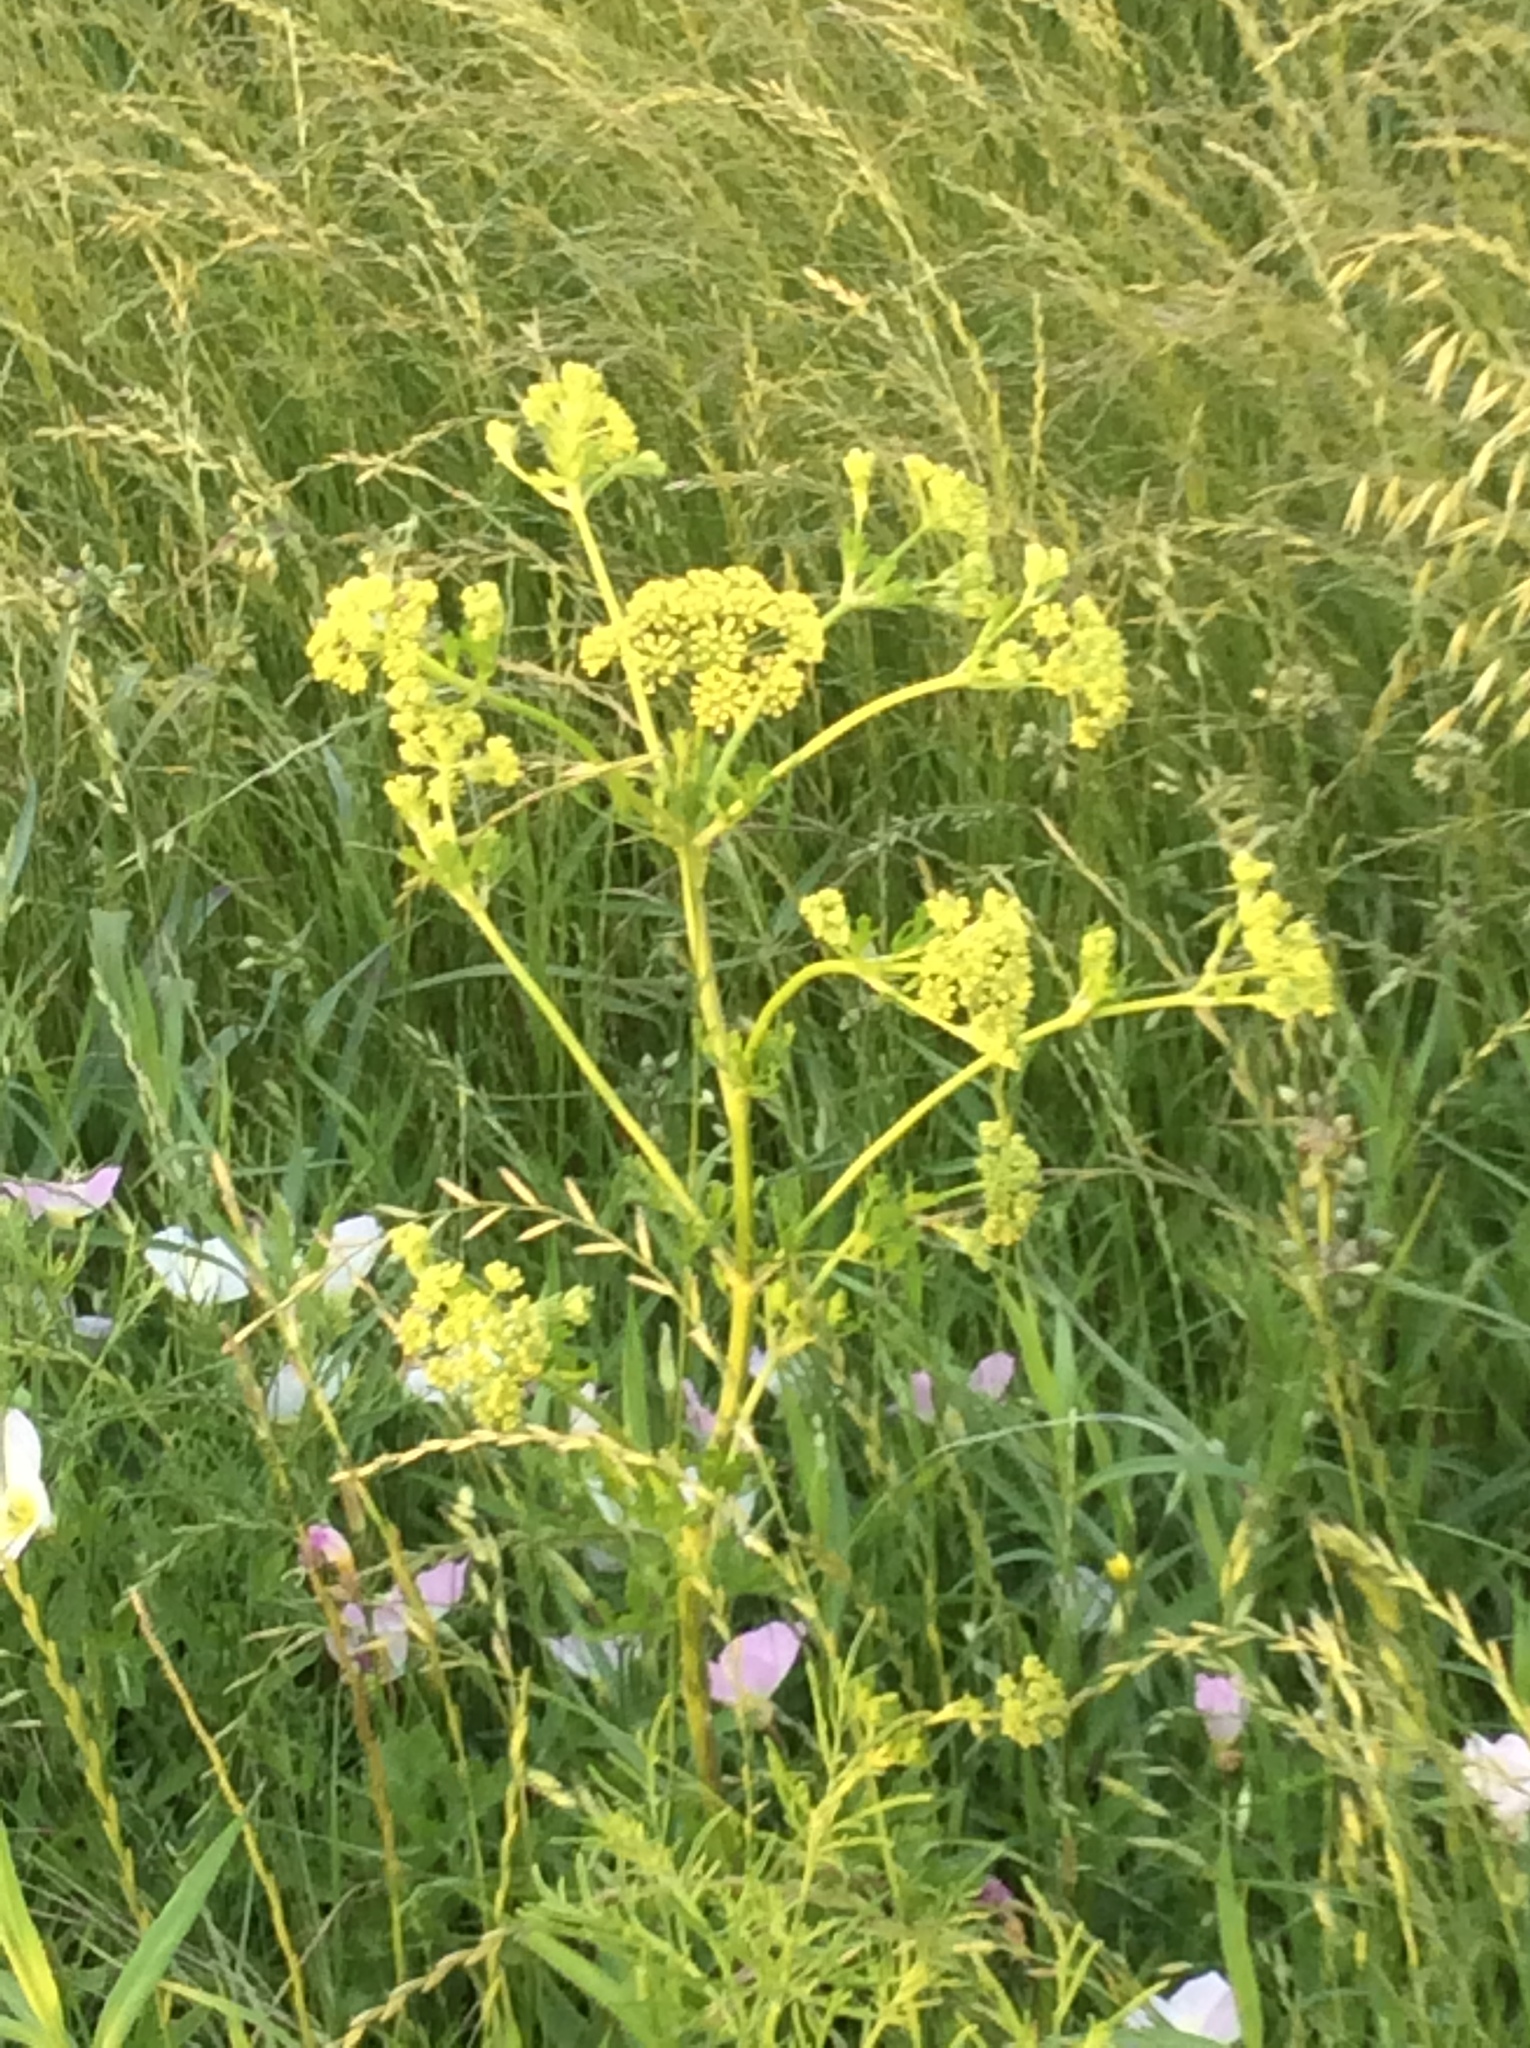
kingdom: Plantae
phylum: Tracheophyta
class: Magnoliopsida
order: Apiales
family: Apiaceae
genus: Polytaenia
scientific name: Polytaenia texana
